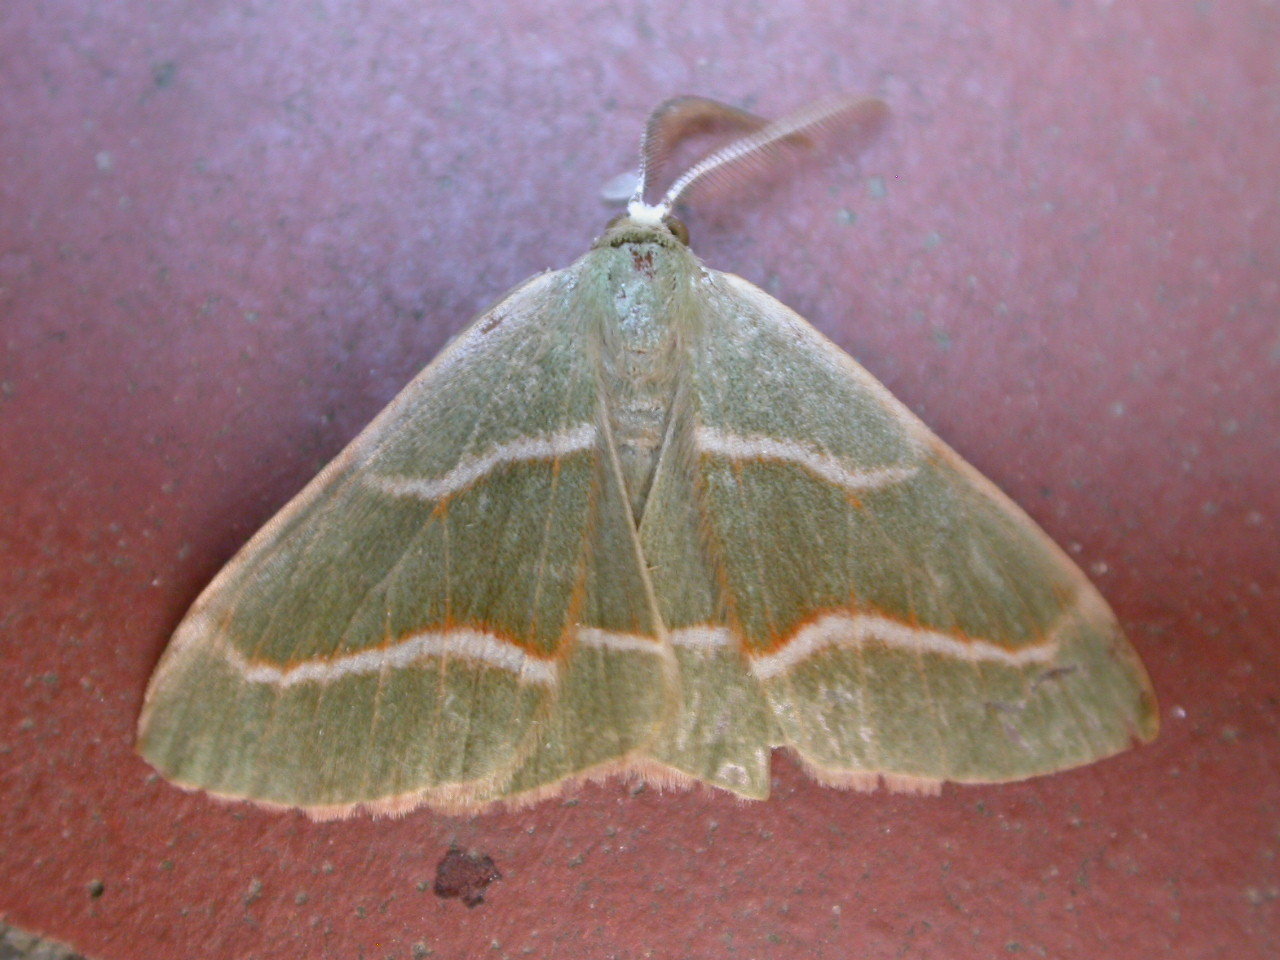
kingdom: Animalia
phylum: Arthropoda
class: Insecta
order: Lepidoptera
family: Geometridae
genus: Hylaea
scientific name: Hylaea fasciaria
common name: Barred red
